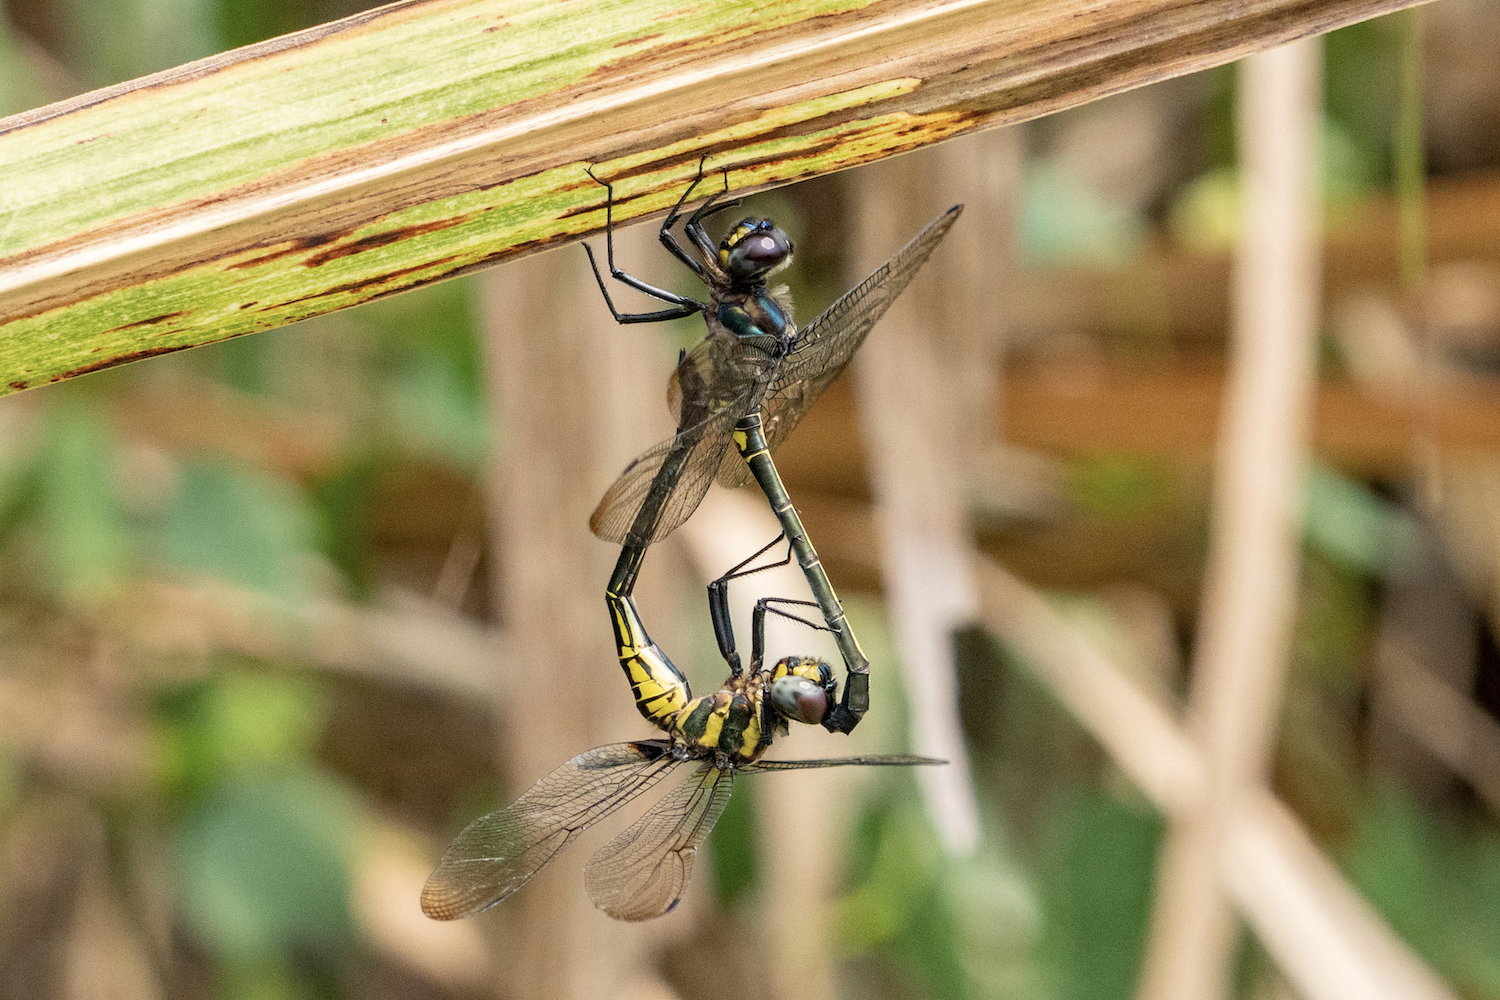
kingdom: Animalia
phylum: Arthropoda
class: Insecta
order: Odonata
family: Libellulidae
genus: Zygonyx
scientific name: Zygonyx iris
